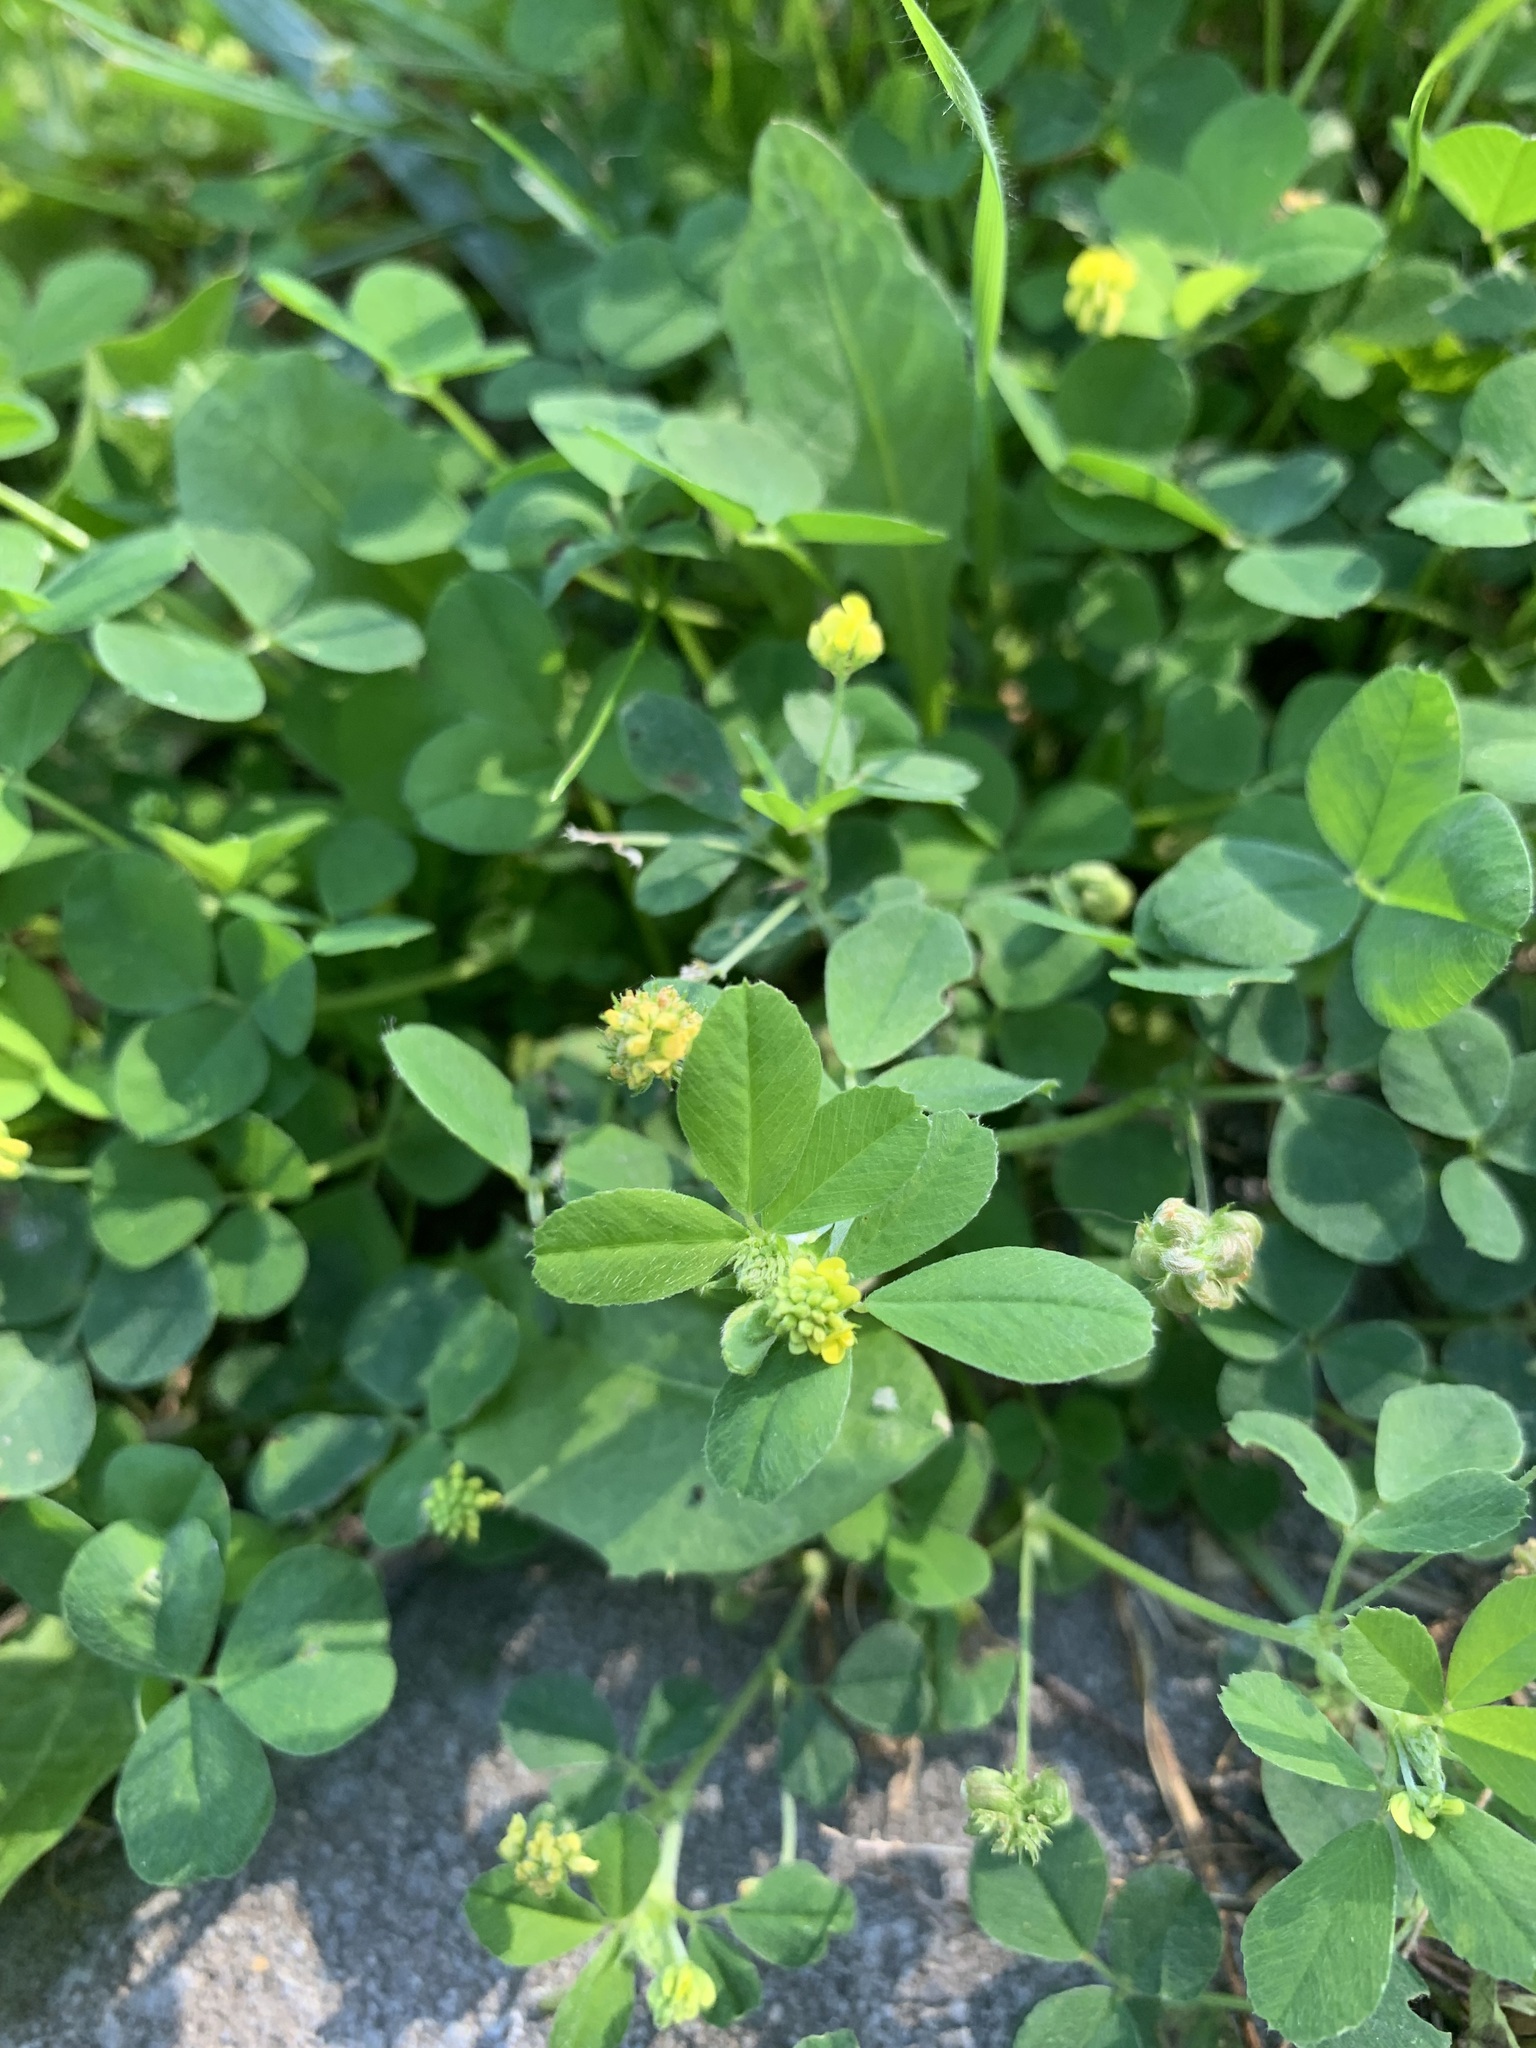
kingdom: Plantae
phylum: Tracheophyta
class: Magnoliopsida
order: Fabales
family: Fabaceae
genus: Medicago
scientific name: Medicago lupulina
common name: Black medick
